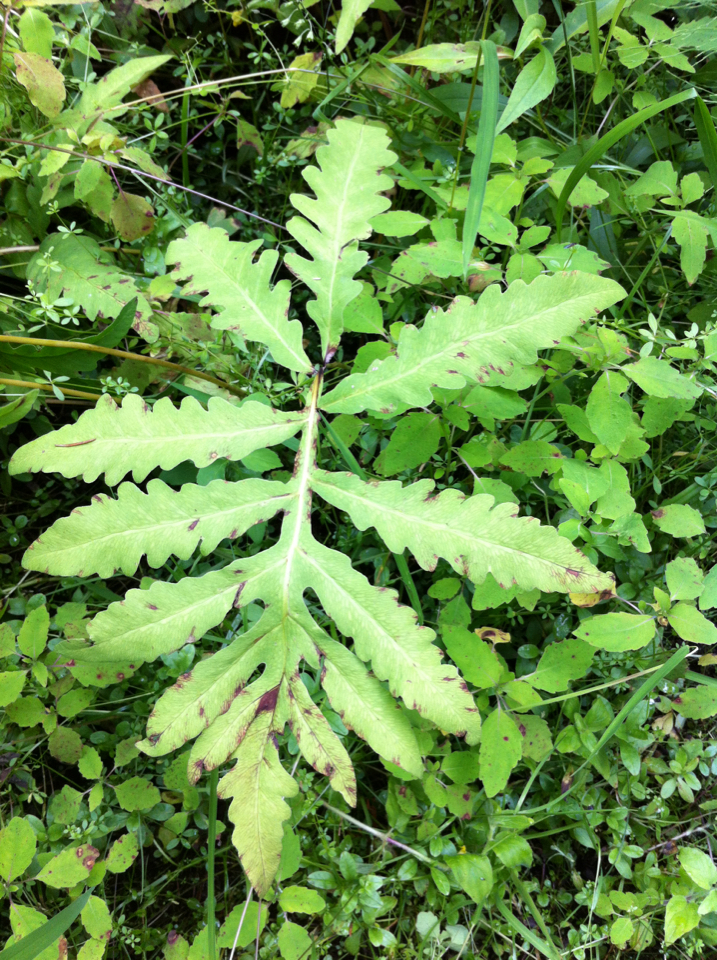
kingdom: Plantae
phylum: Tracheophyta
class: Polypodiopsida
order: Polypodiales
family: Onocleaceae
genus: Onoclea
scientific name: Onoclea sensibilis
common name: Sensitive fern
